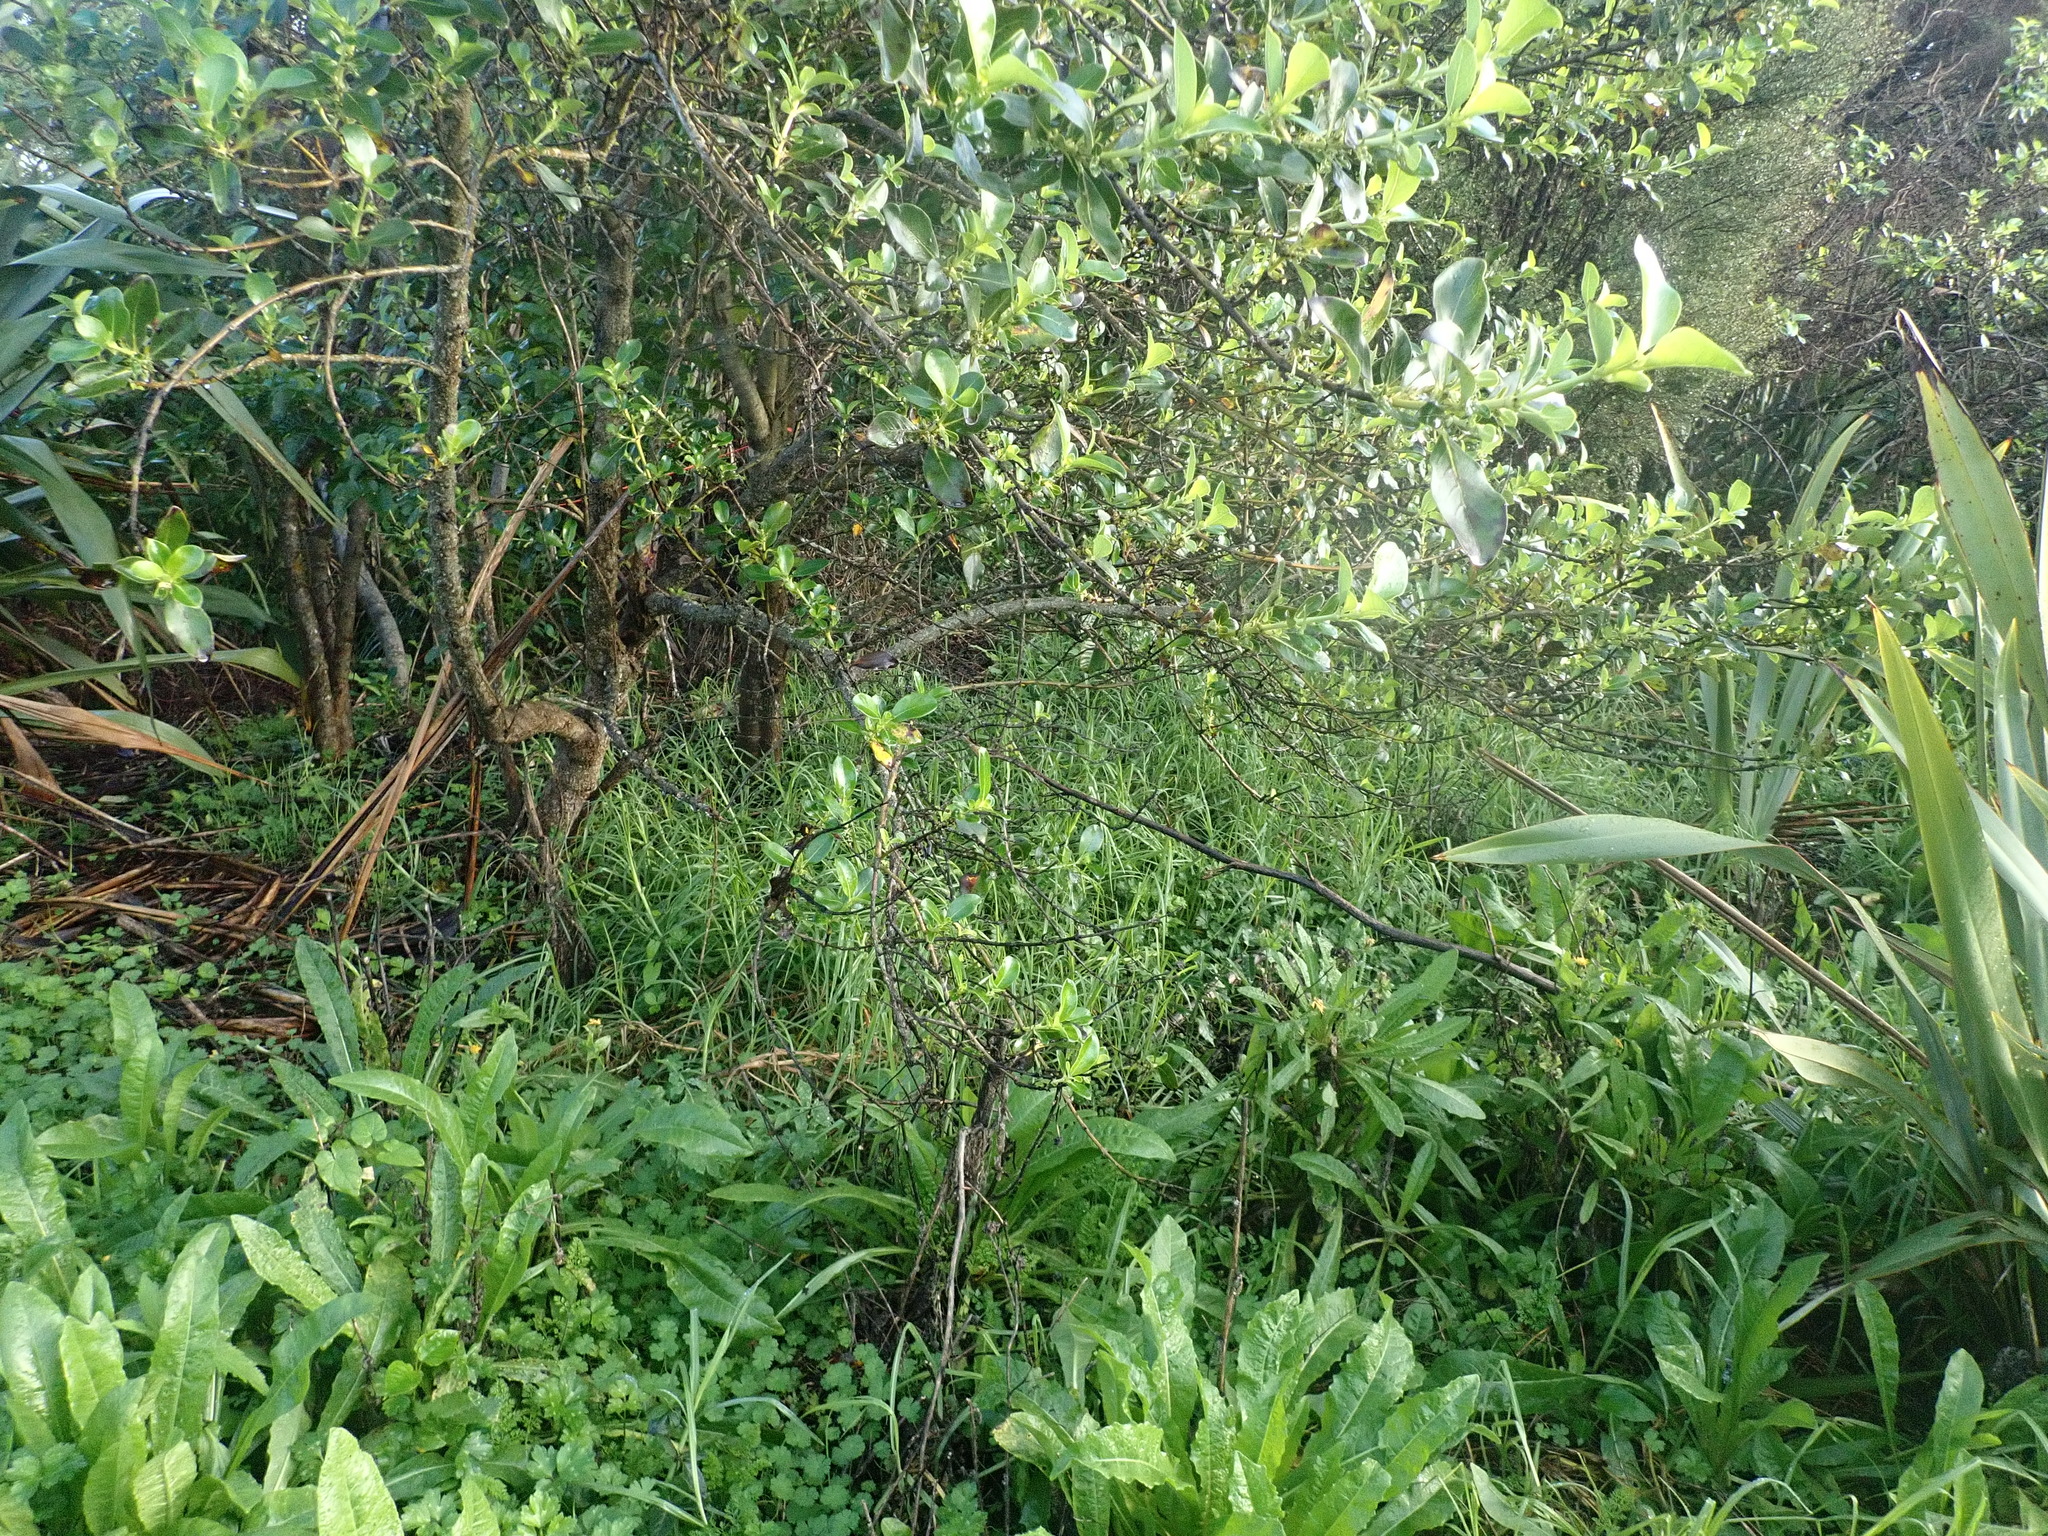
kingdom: Plantae
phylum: Tracheophyta
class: Liliopsida
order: Poales
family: Poaceae
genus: Cenchrus
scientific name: Cenchrus clandestinus
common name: Kikuyugrass
